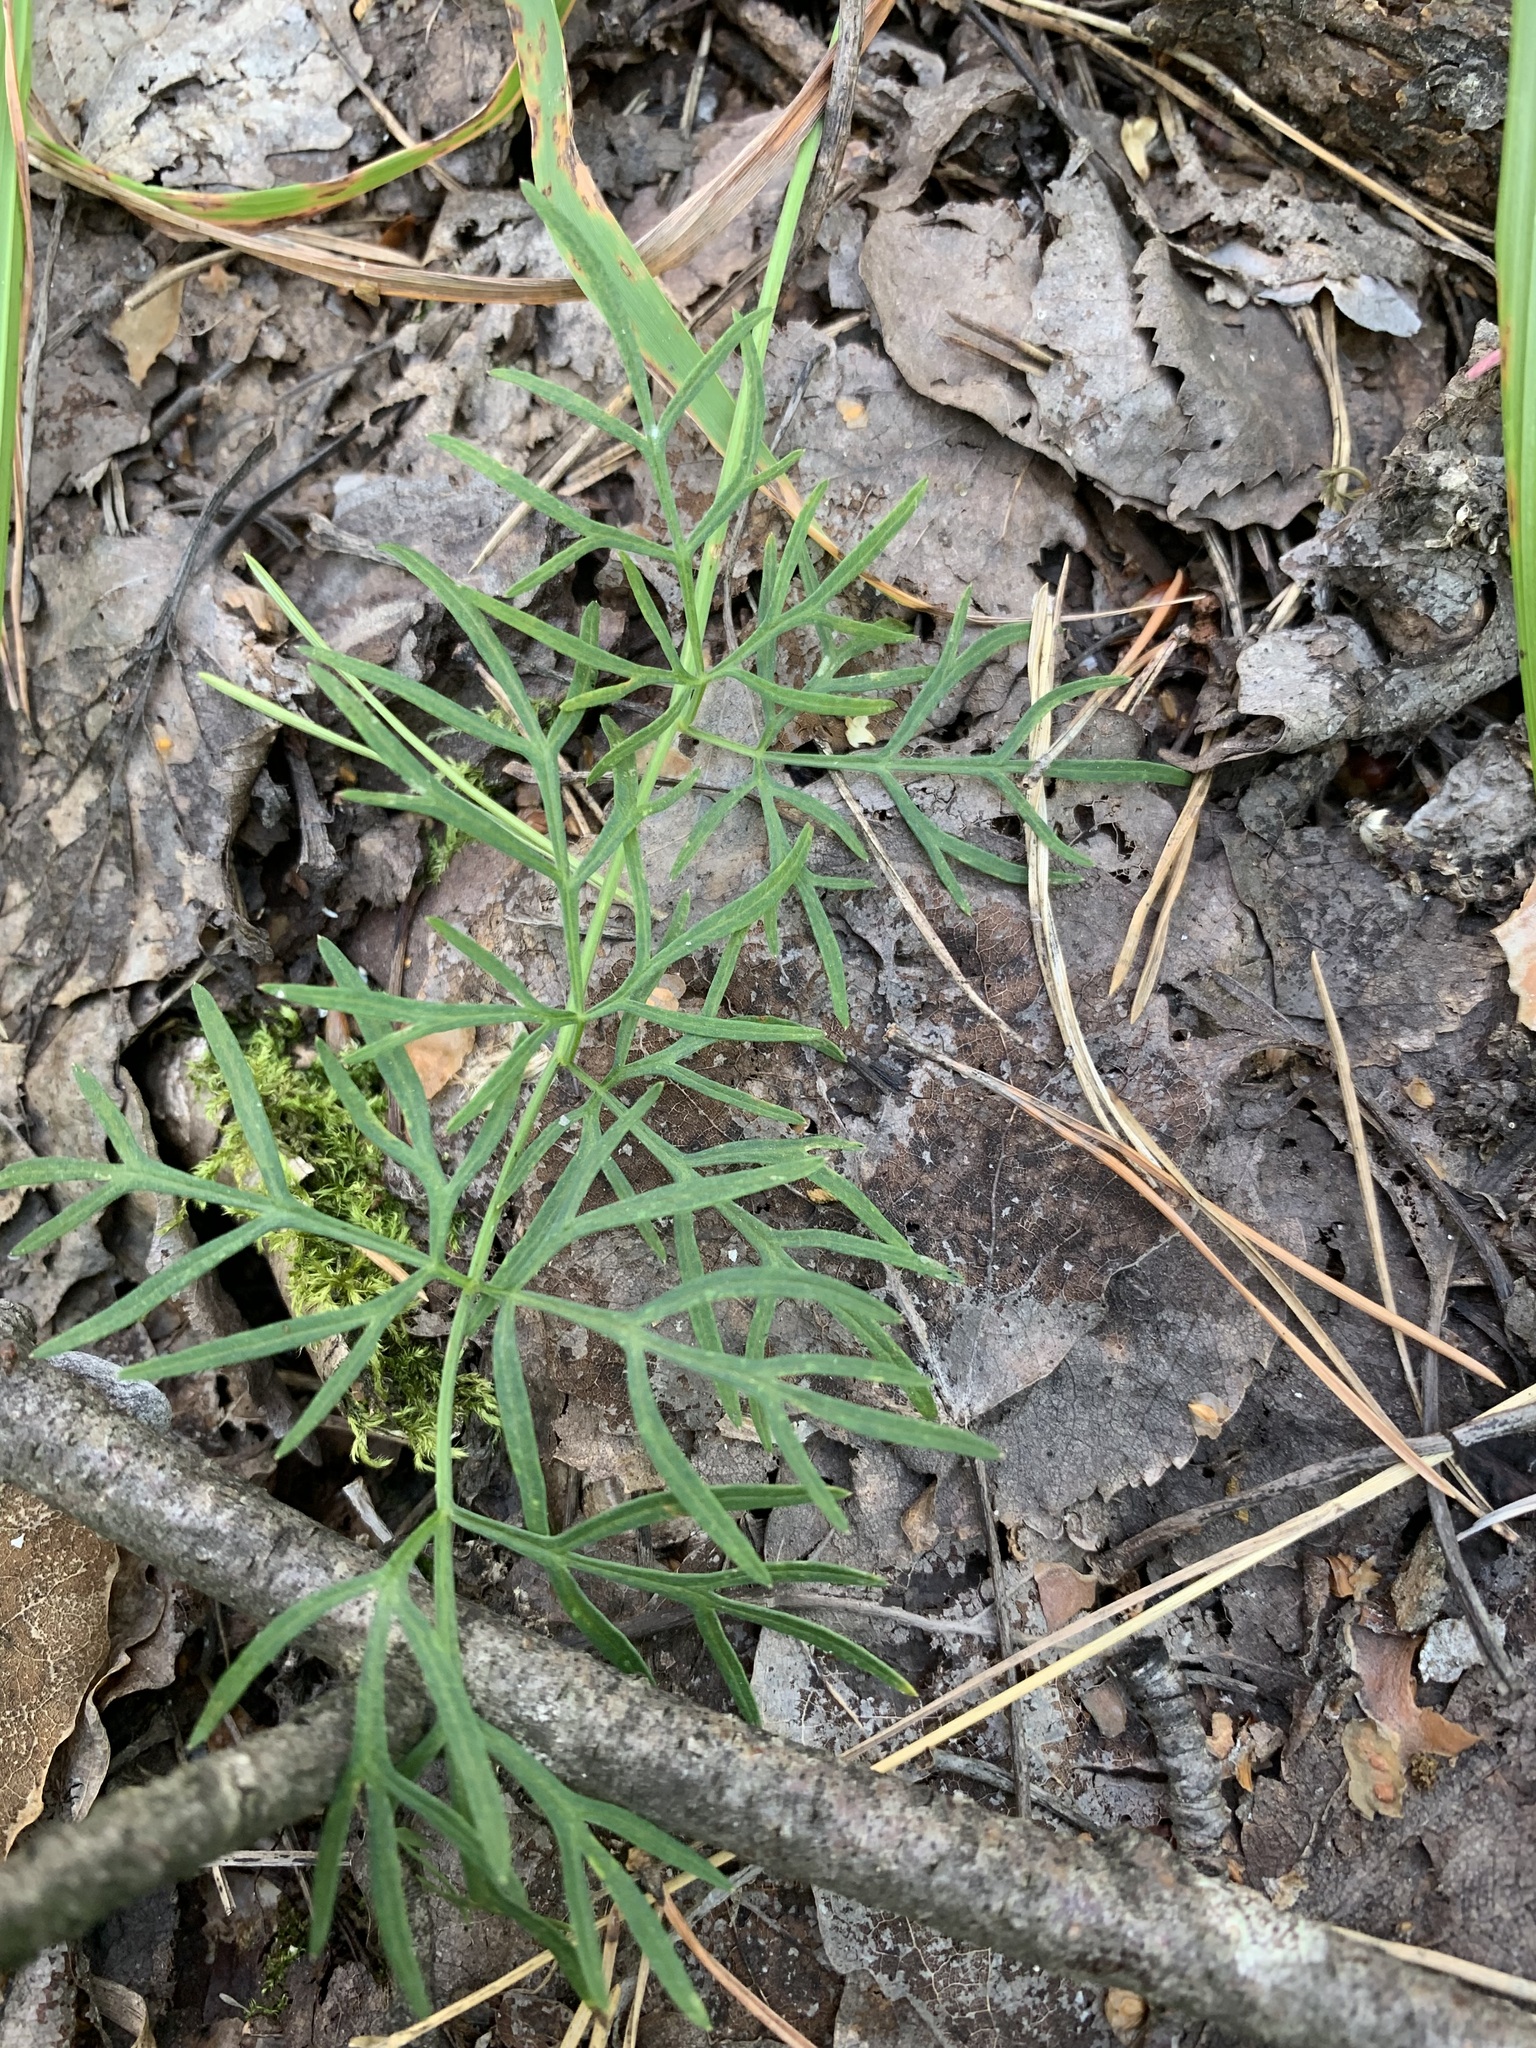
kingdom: Plantae
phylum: Tracheophyta
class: Magnoliopsida
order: Apiales
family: Apiaceae
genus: Kadenia
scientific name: Kadenia dubia
